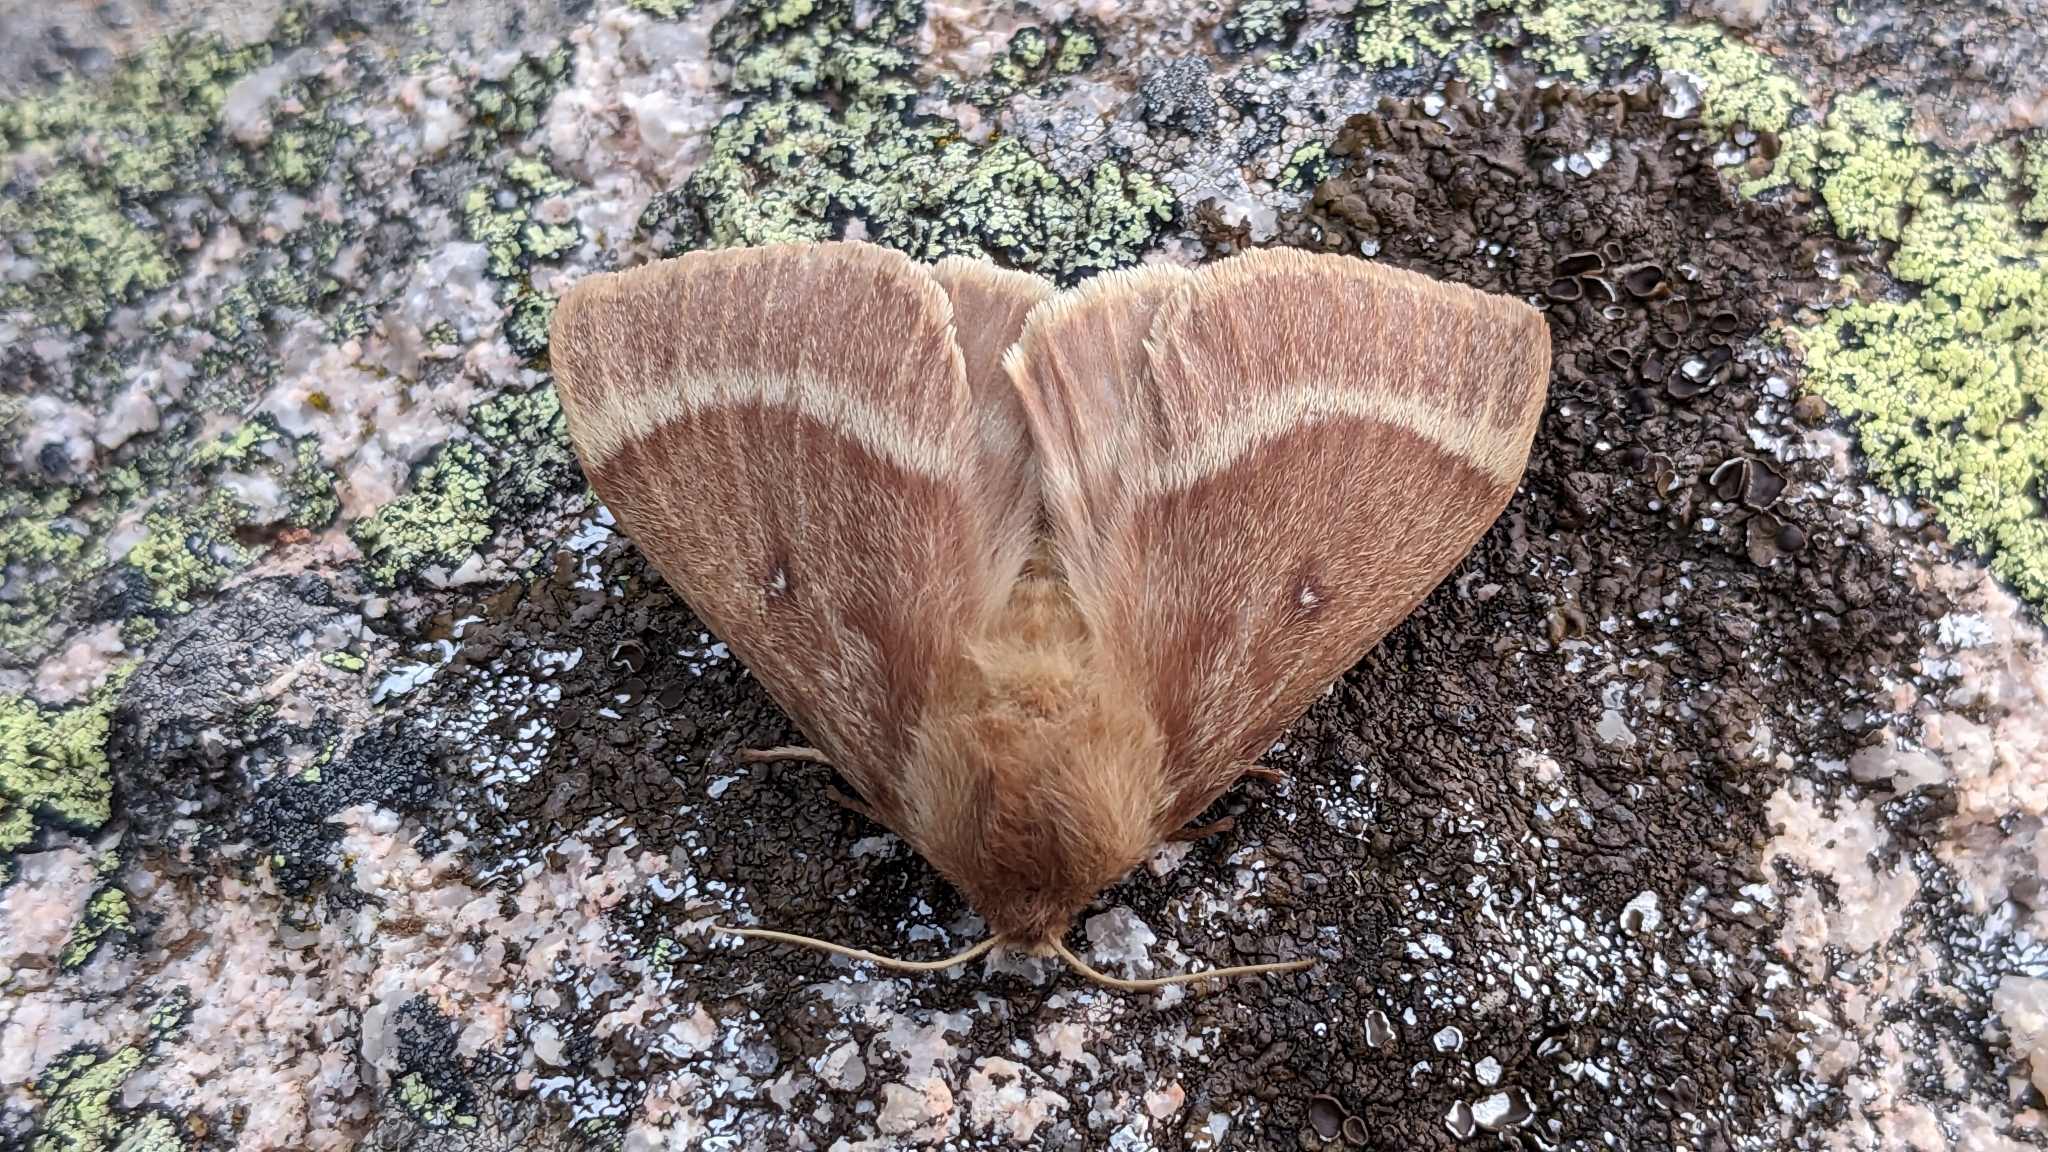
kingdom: Animalia
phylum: Arthropoda
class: Insecta
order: Lepidoptera
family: Lasiocampidae
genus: Lasiocampa
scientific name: Lasiocampa trifolii
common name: Grass eggar
